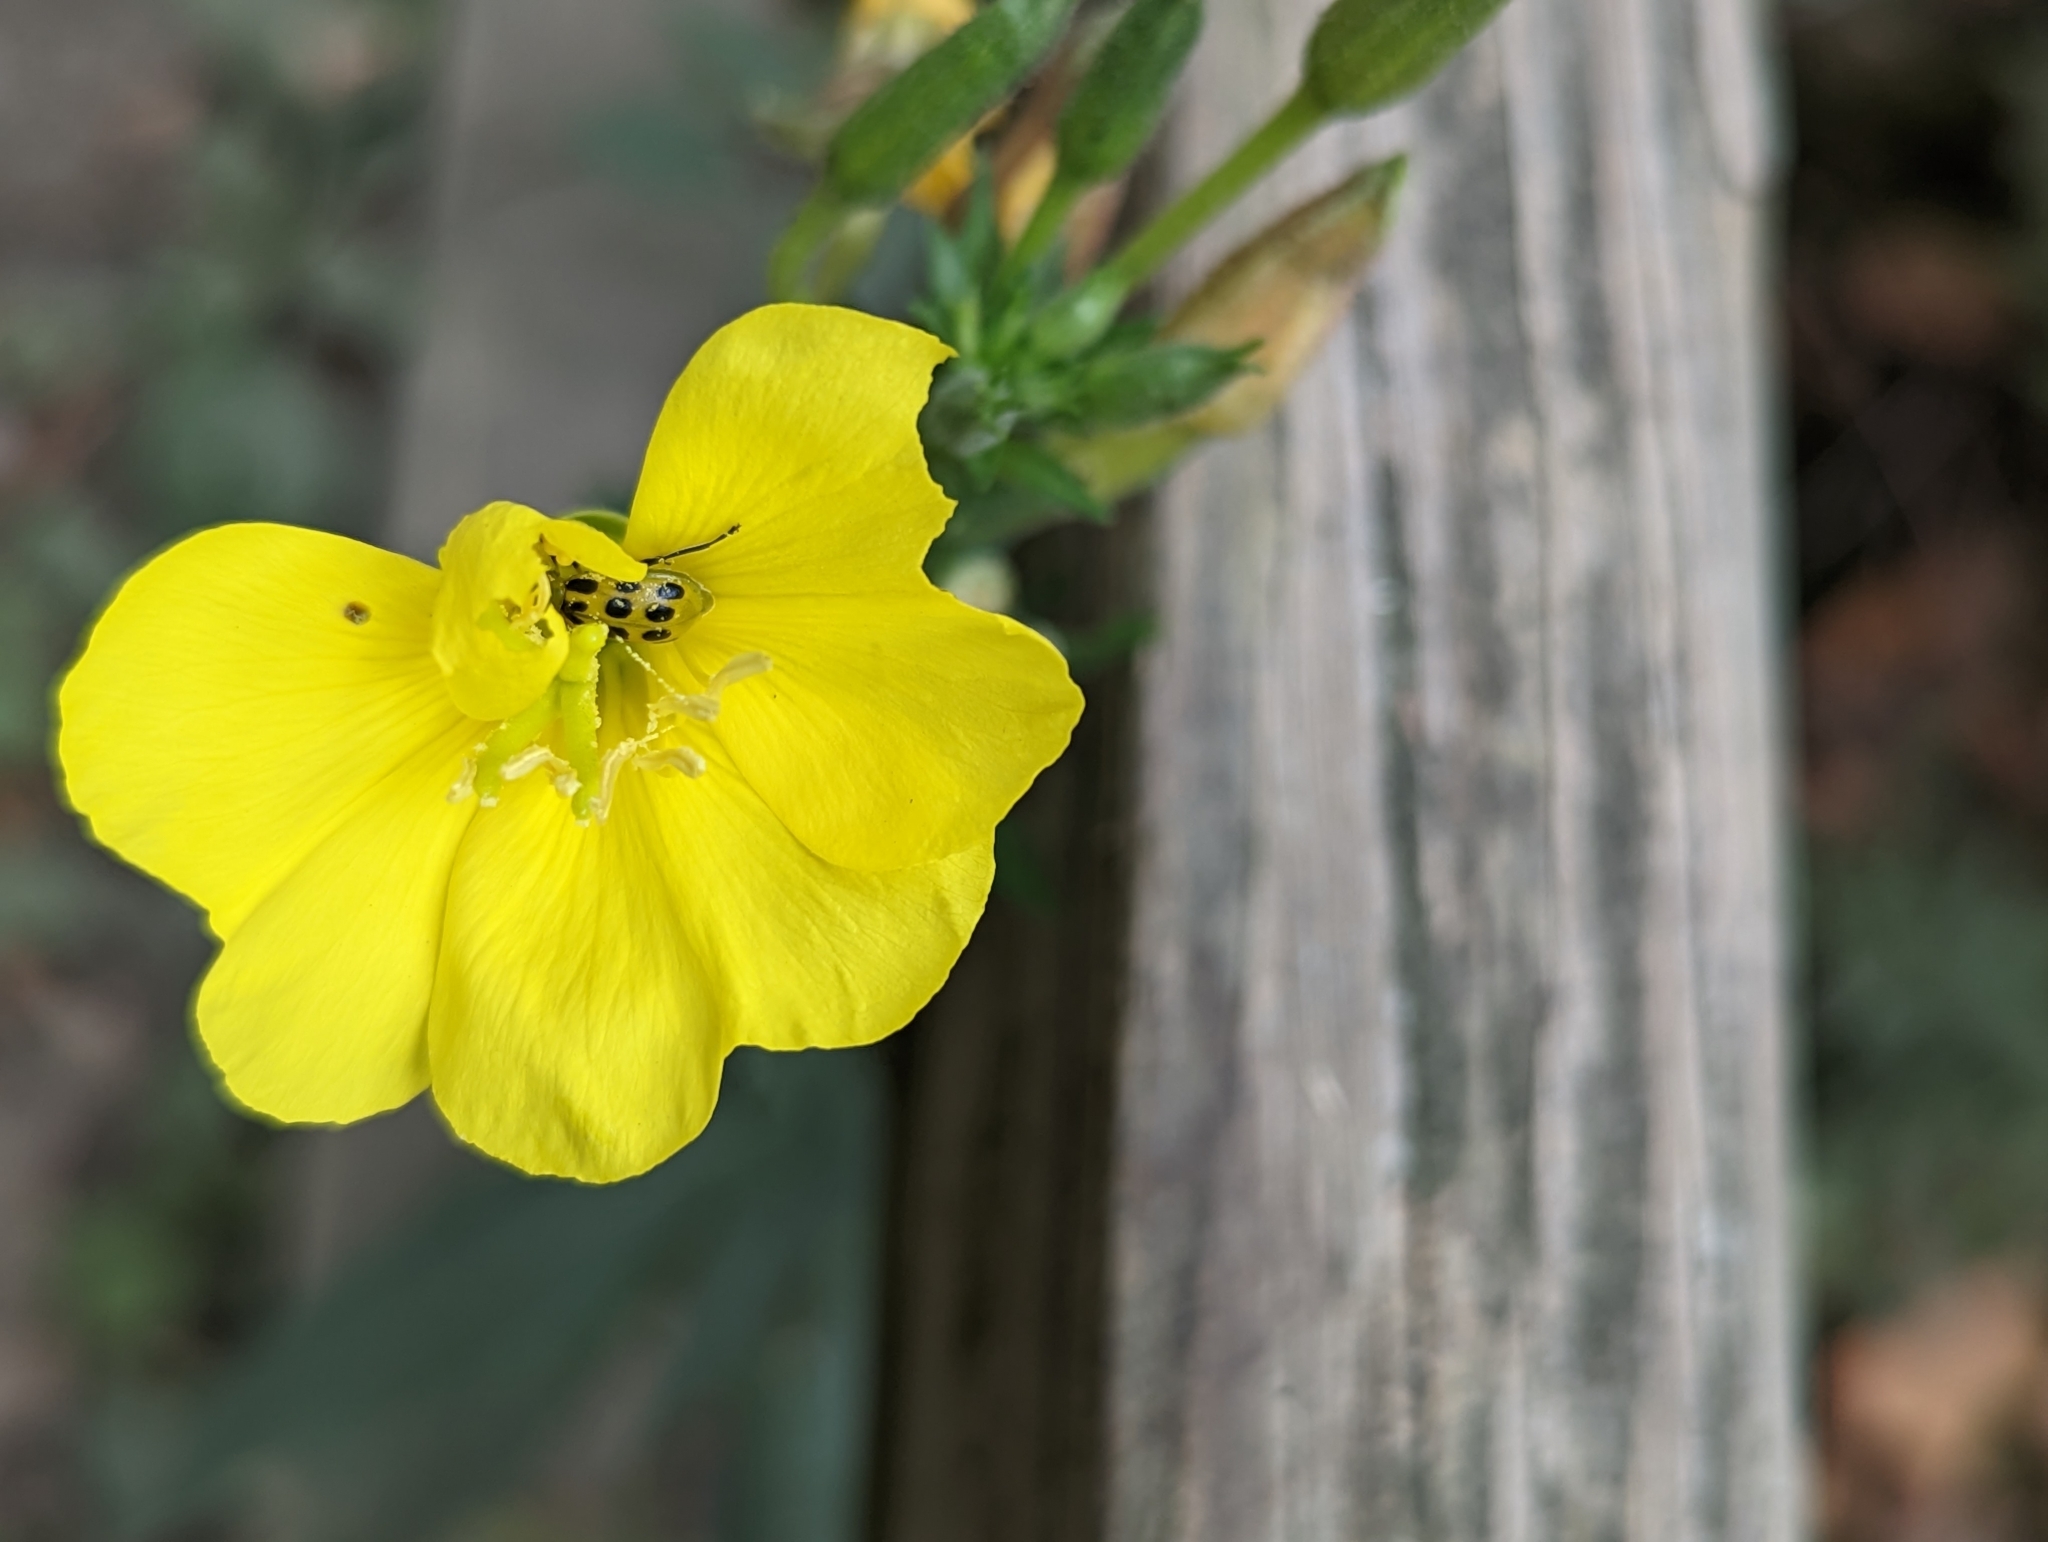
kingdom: Animalia
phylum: Arthropoda
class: Insecta
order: Coleoptera
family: Chrysomelidae
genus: Diabrotica
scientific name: Diabrotica undecimpunctata
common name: Spotted cucumber beetle
